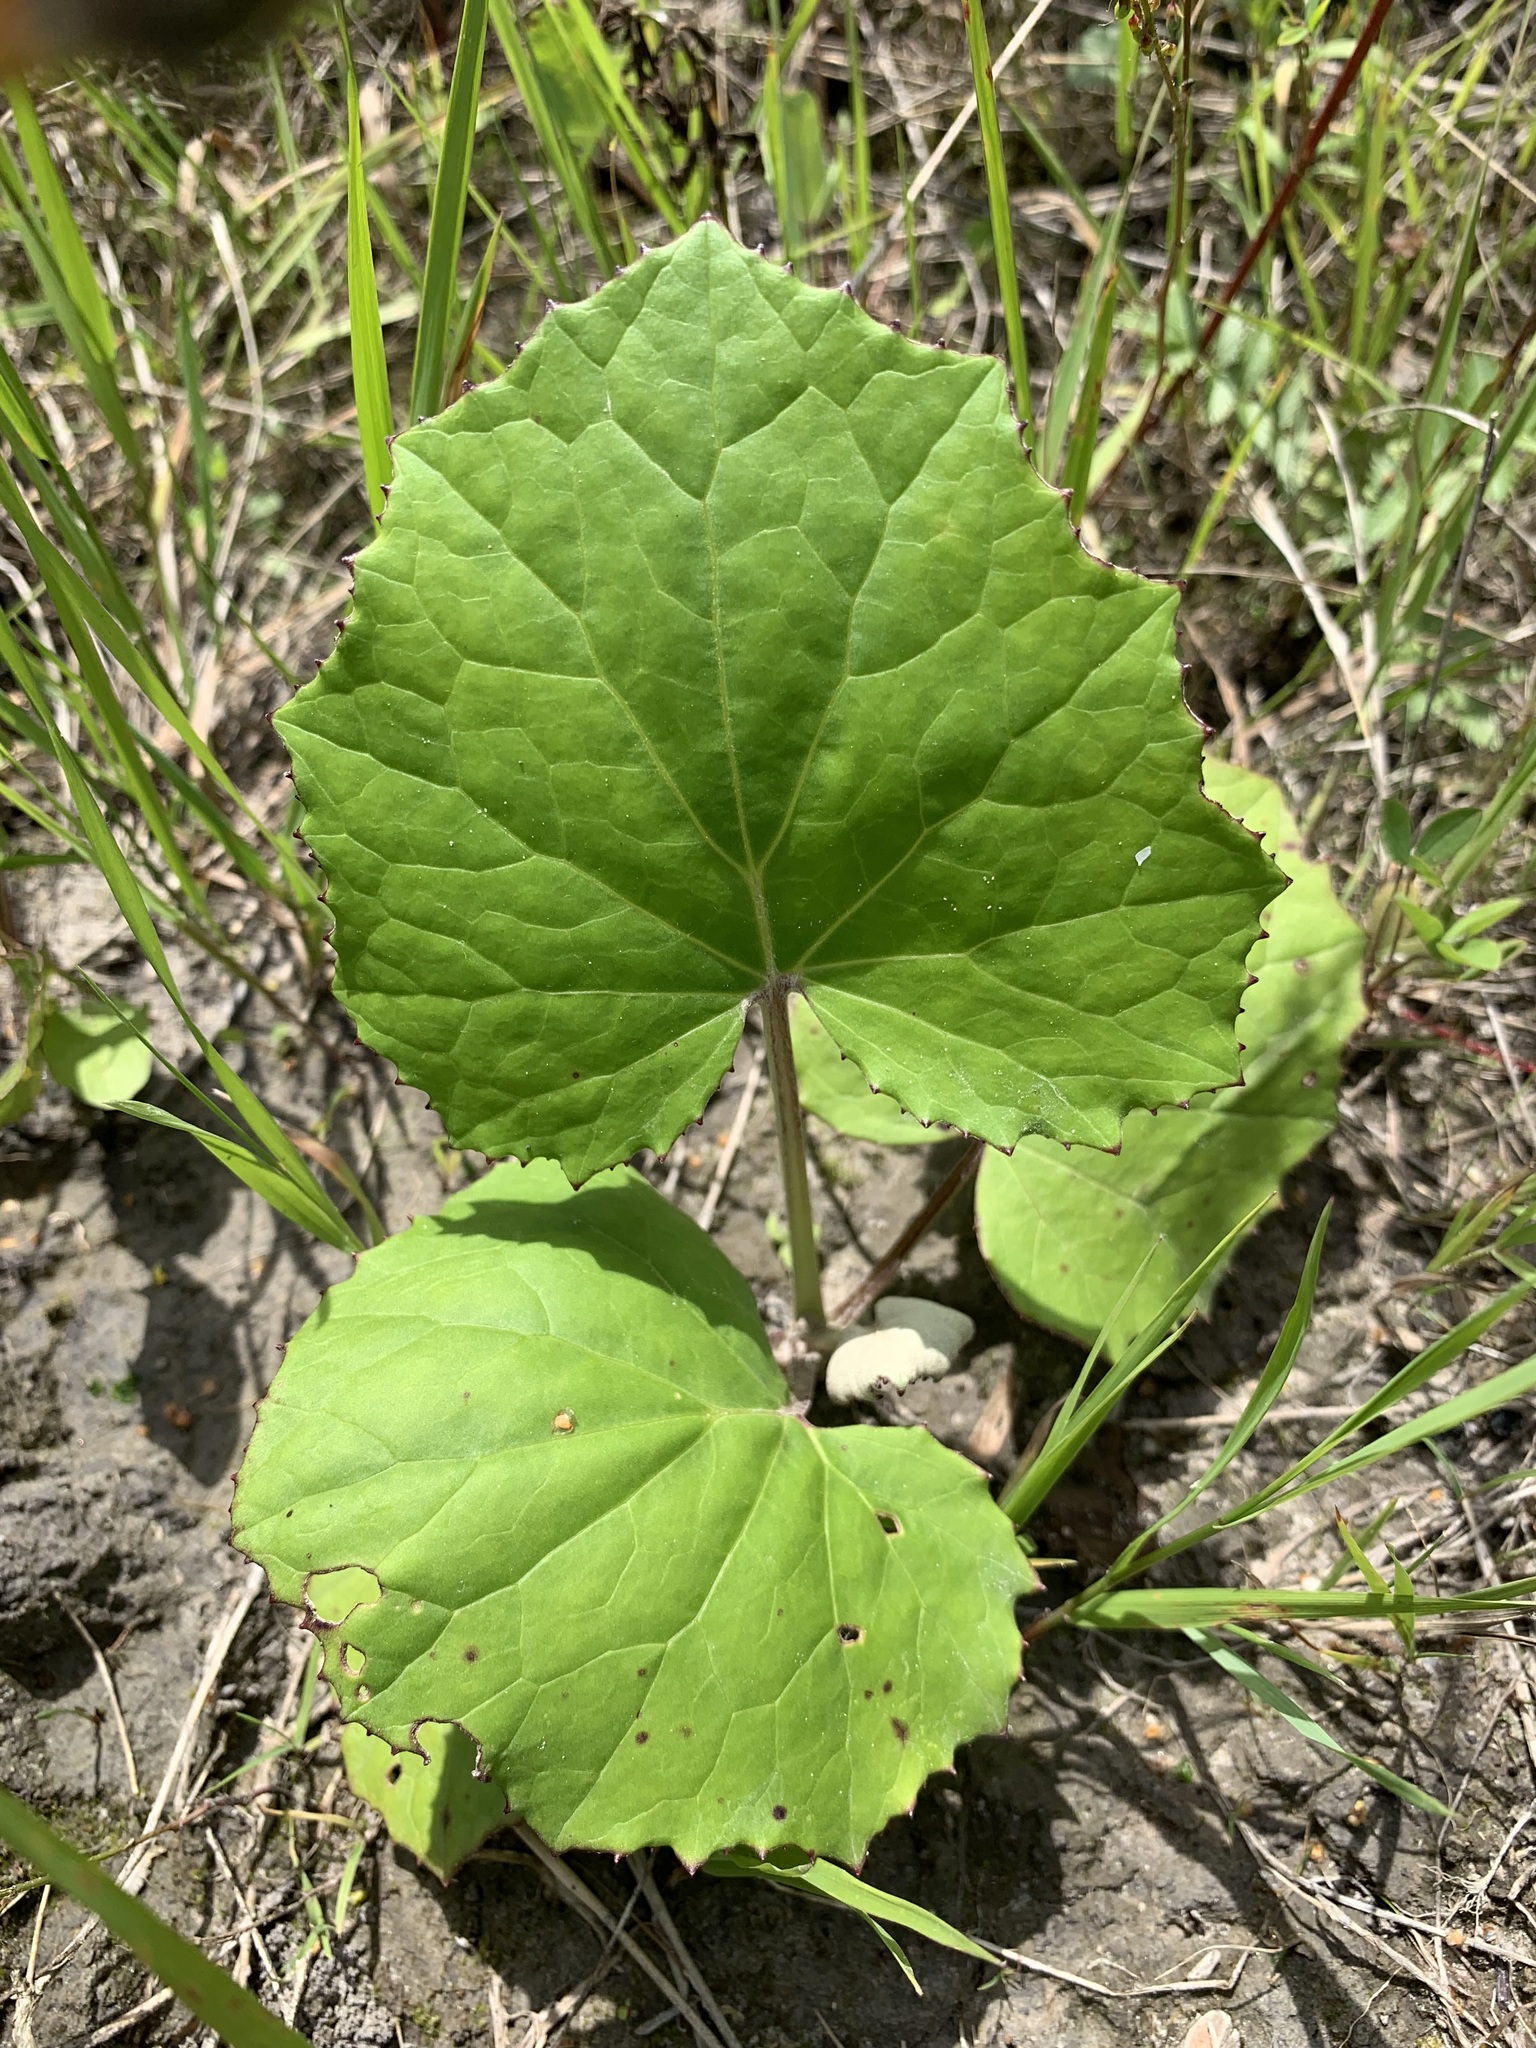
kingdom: Plantae
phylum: Tracheophyta
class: Magnoliopsida
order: Asterales
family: Asteraceae
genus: Tussilago
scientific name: Tussilago farfara
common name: Coltsfoot
